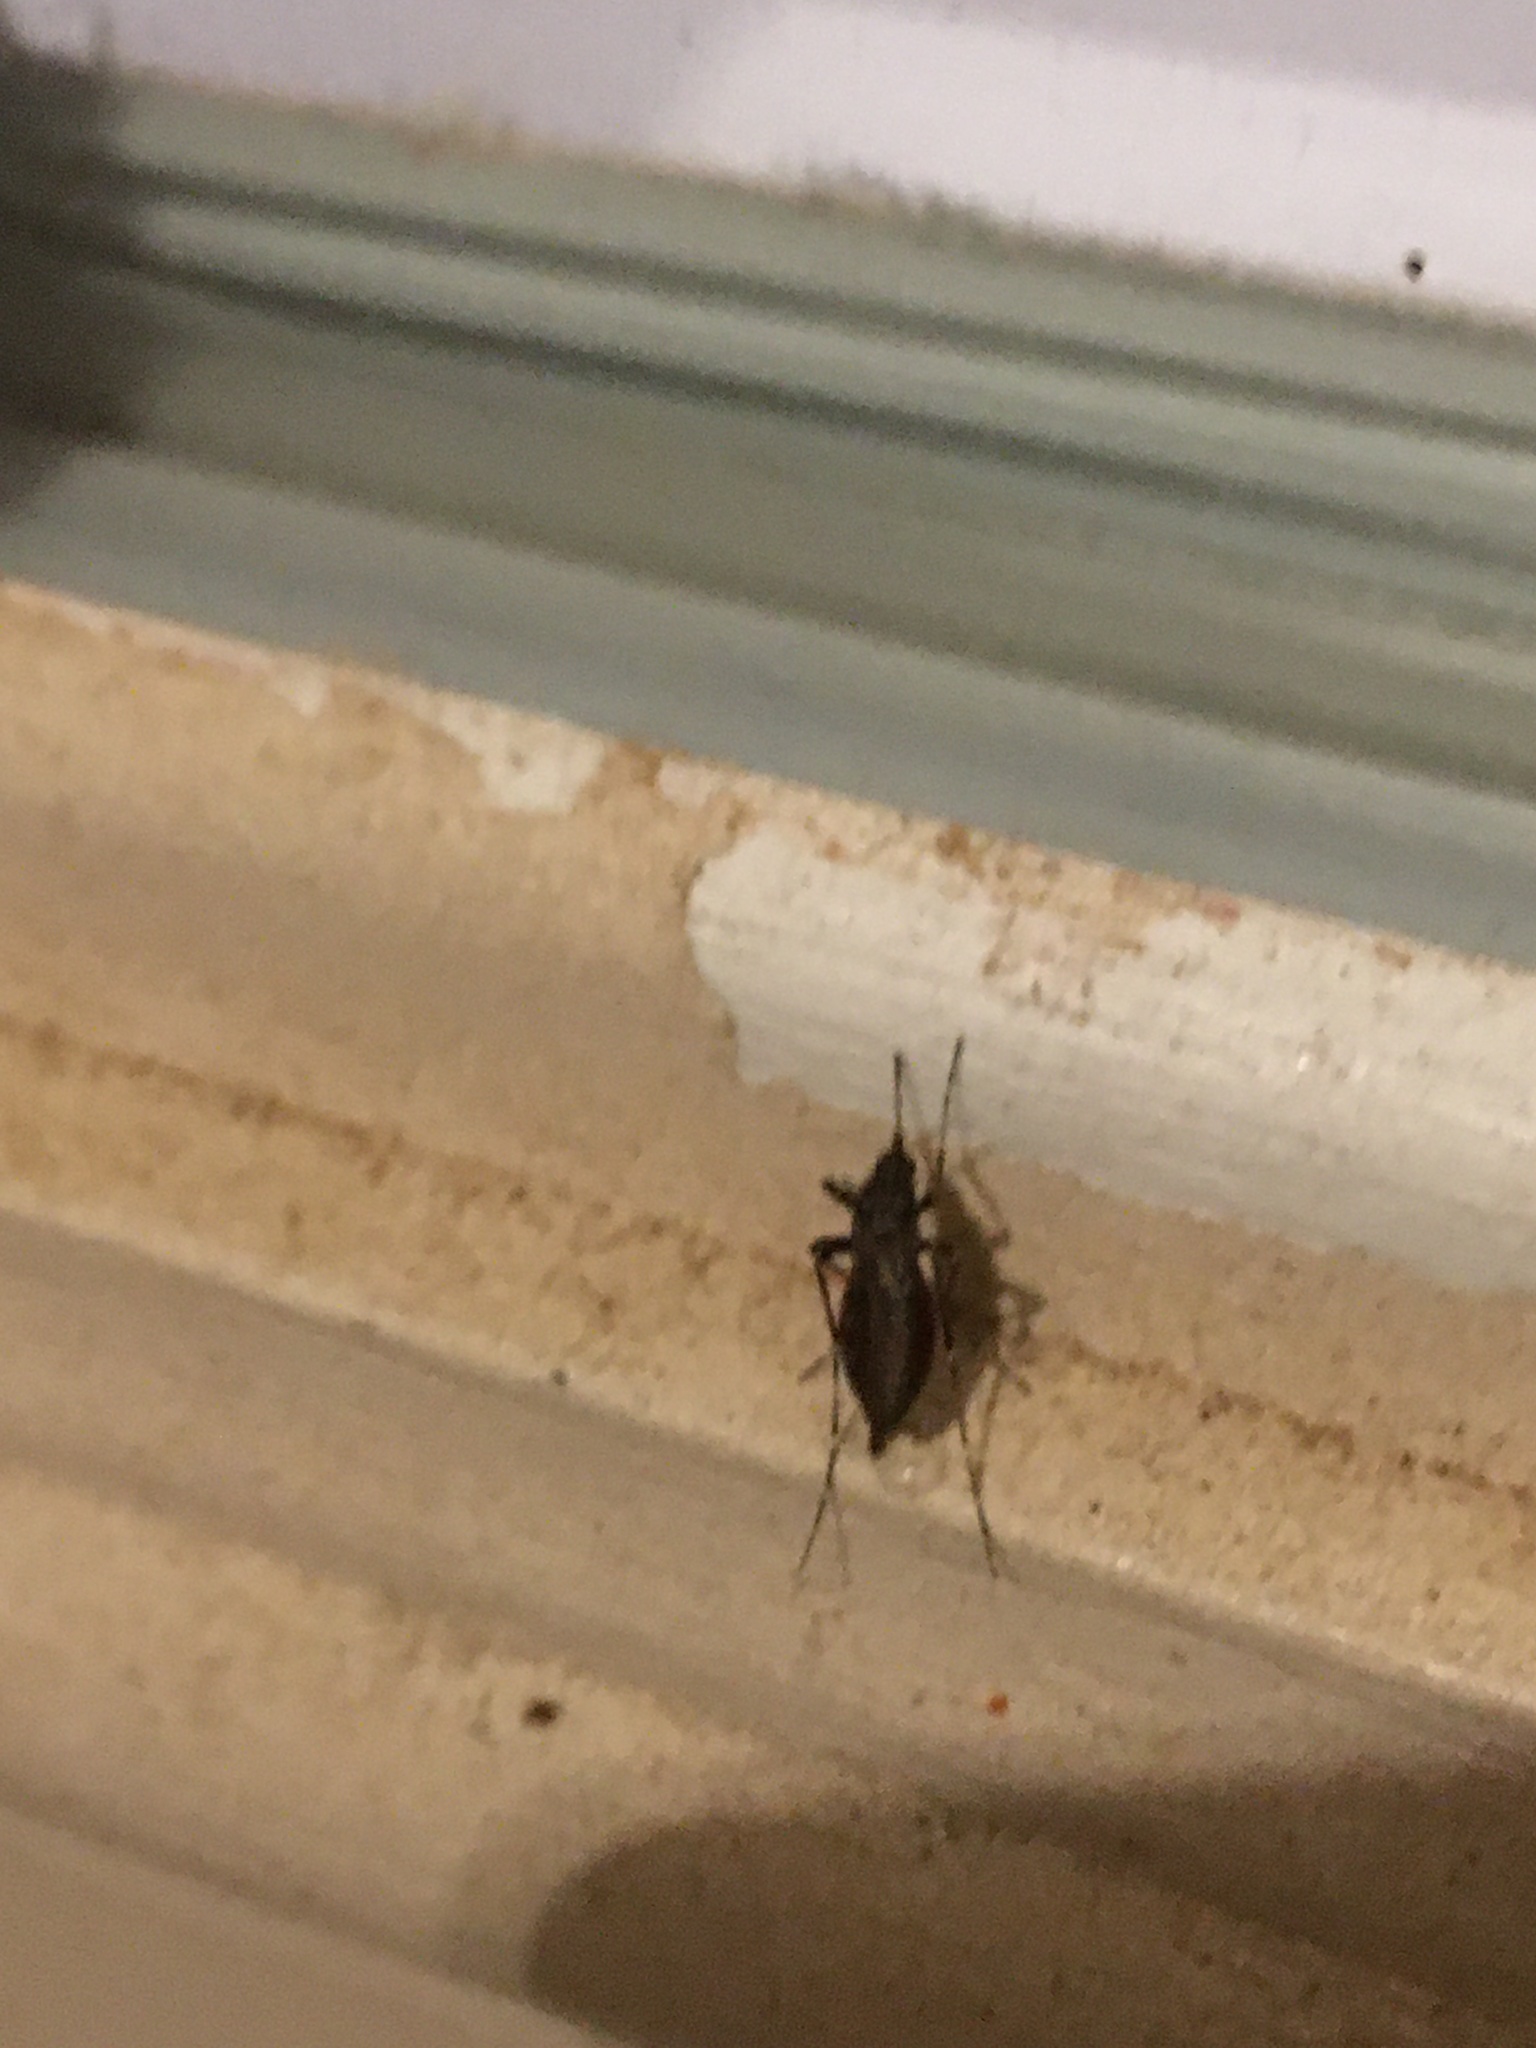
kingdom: Animalia
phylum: Arthropoda
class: Insecta
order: Diptera
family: Culicidae
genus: Psorophora
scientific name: Psorophora columbiae
